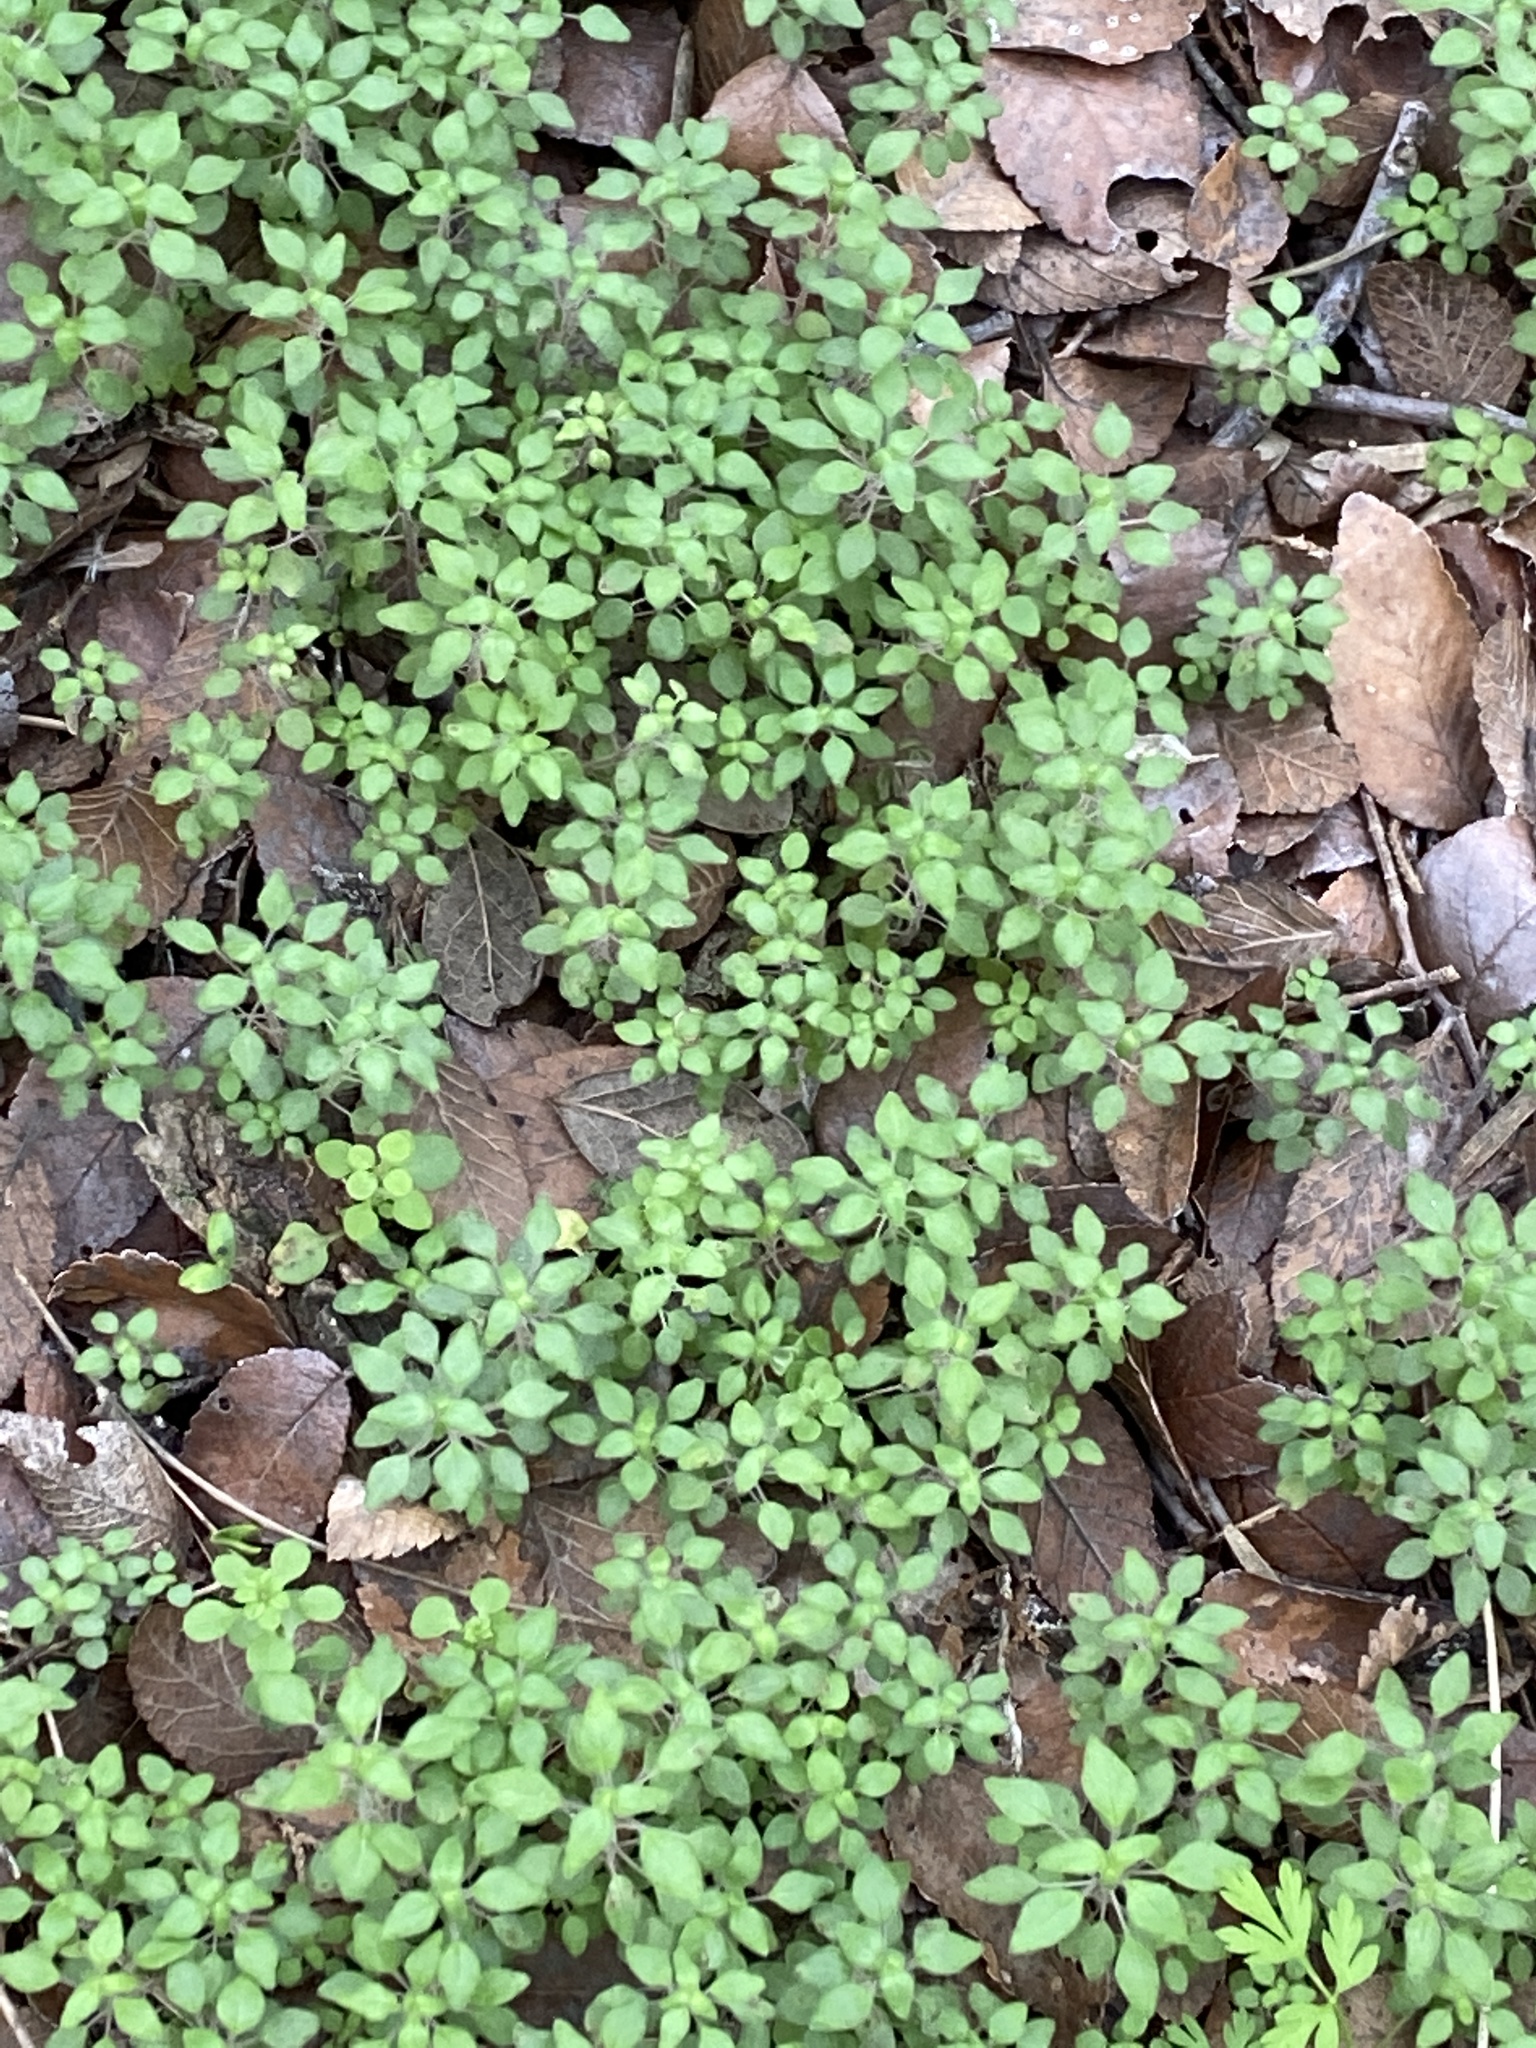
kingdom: Plantae
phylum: Tracheophyta
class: Magnoliopsida
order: Rosales
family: Urticaceae
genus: Parietaria
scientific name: Parietaria pensylvanica
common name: Pennsylvania pellitory
